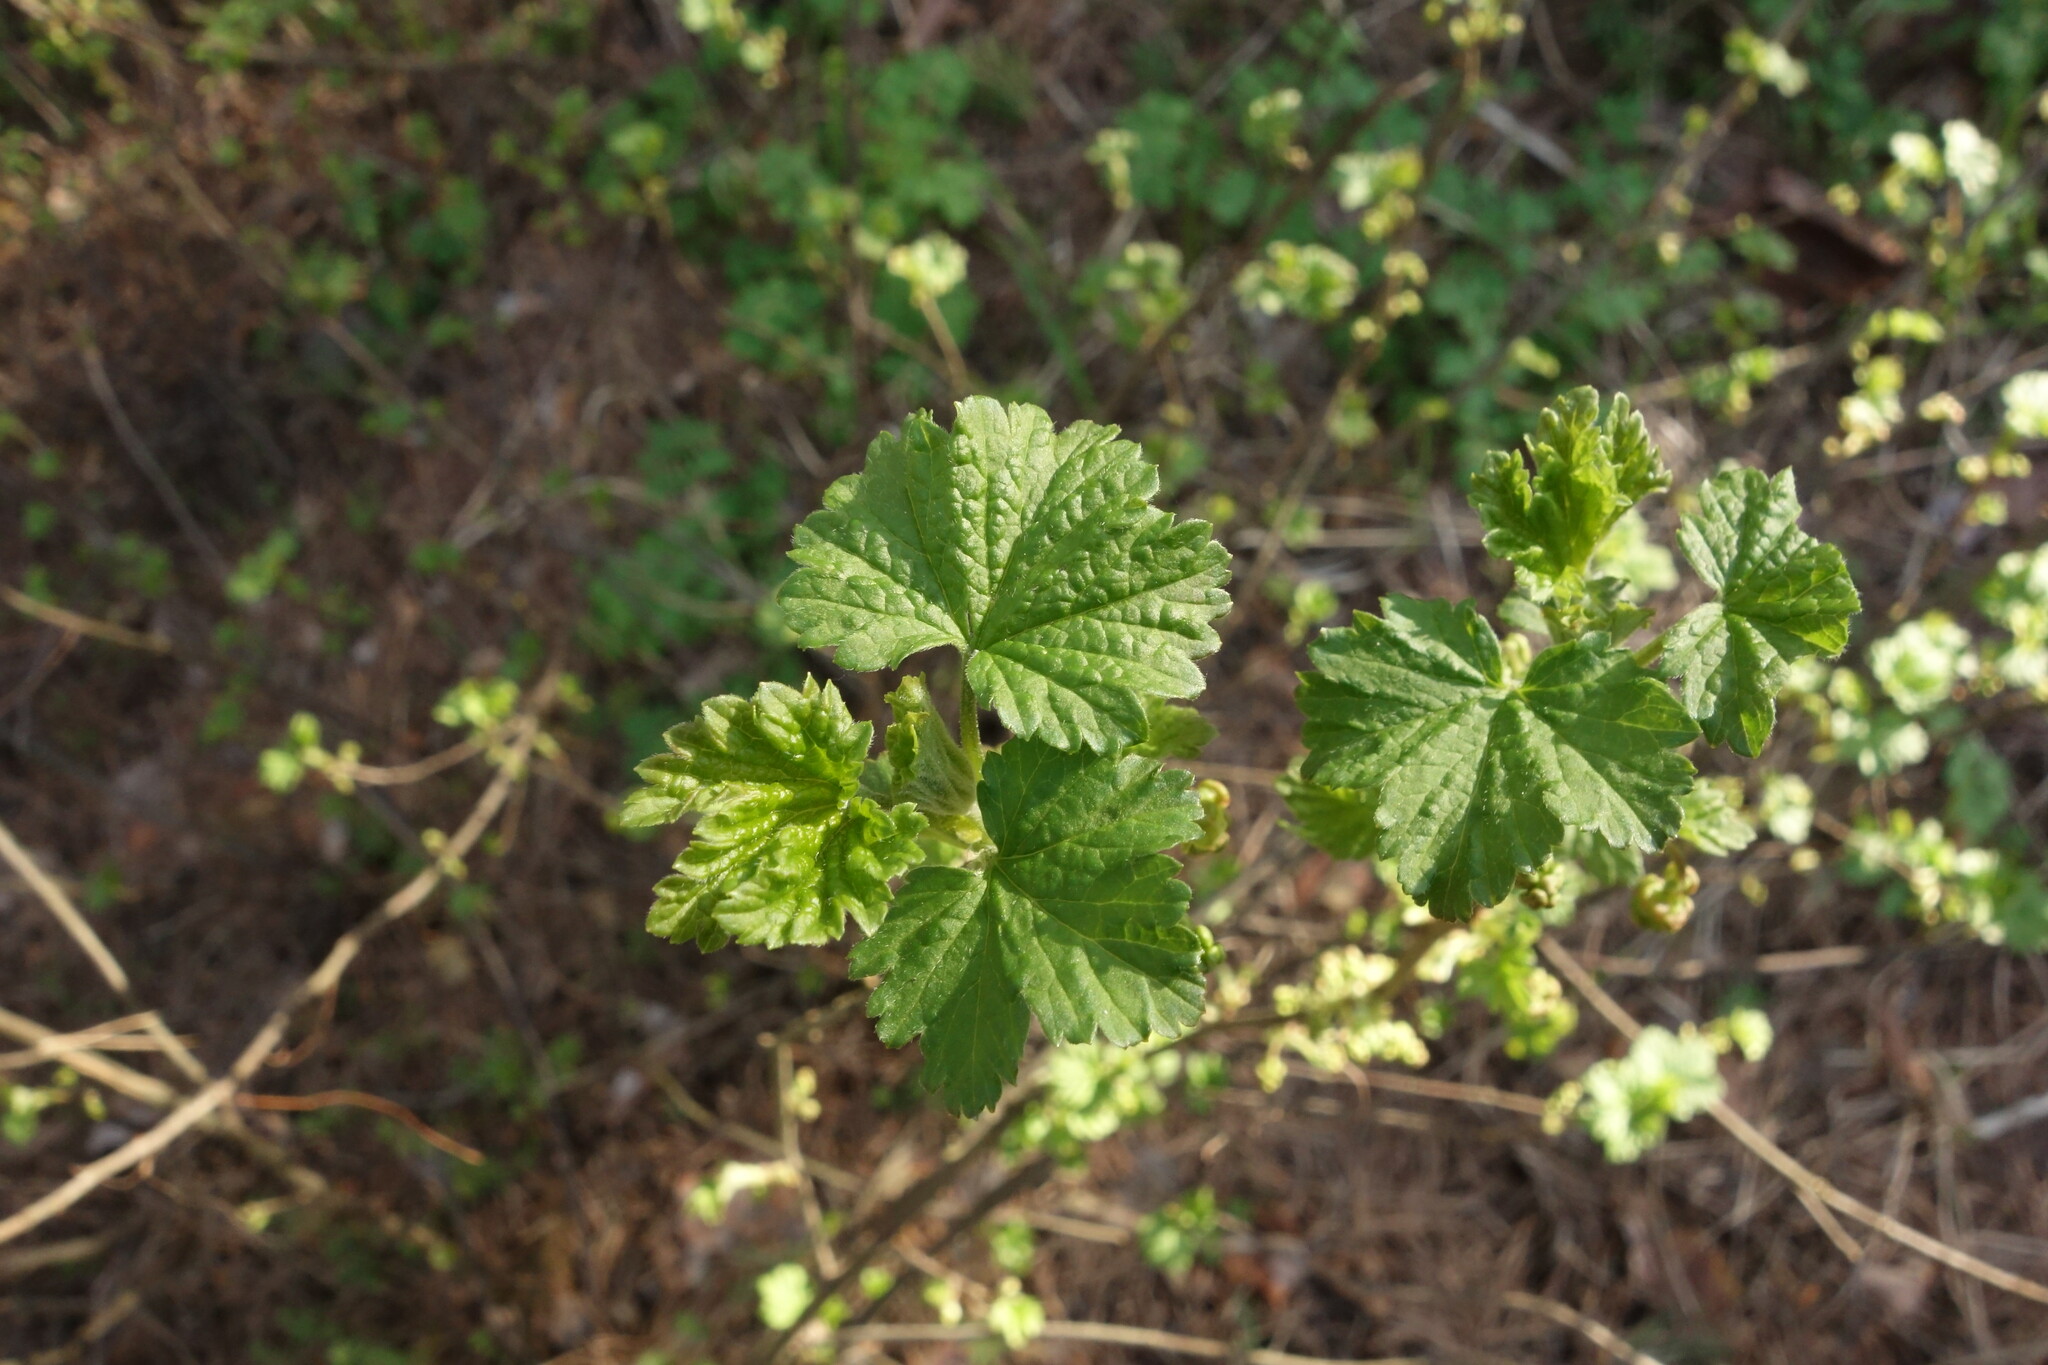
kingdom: Plantae
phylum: Tracheophyta
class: Magnoliopsida
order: Saxifragales
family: Grossulariaceae
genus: Ribes
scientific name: Ribes rubrum
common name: Red currant
